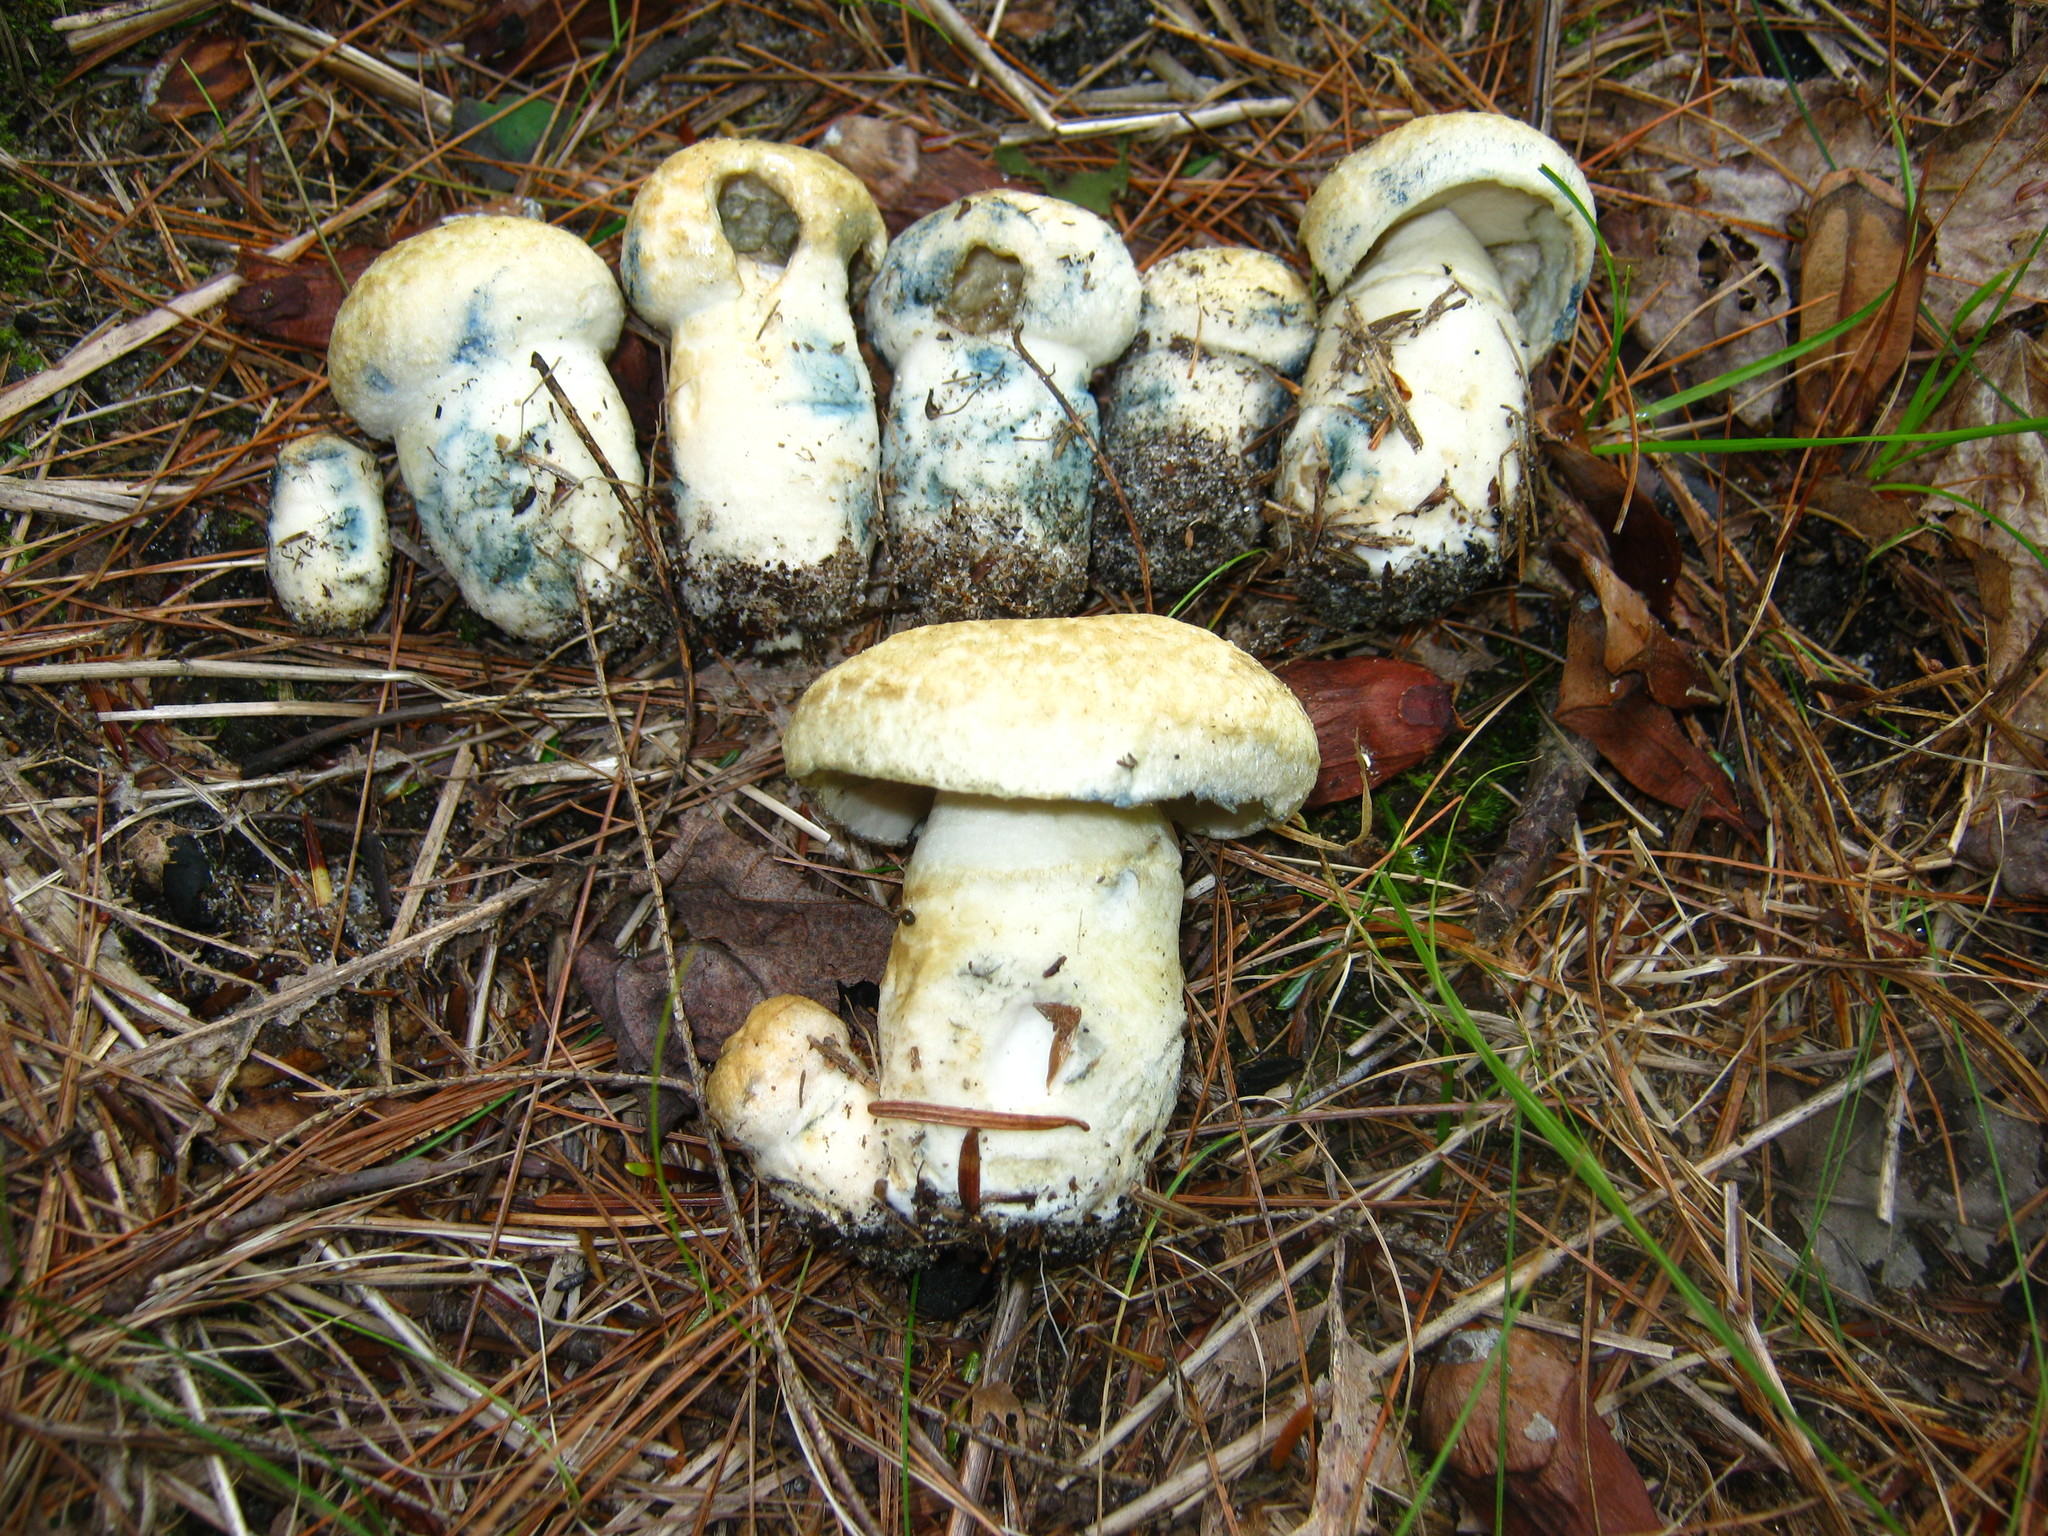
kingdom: Fungi
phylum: Basidiomycota
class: Agaricomycetes
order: Boletales
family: Gyroporaceae
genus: Gyroporus
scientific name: Gyroporus cyanescens
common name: Cornflower bolete
